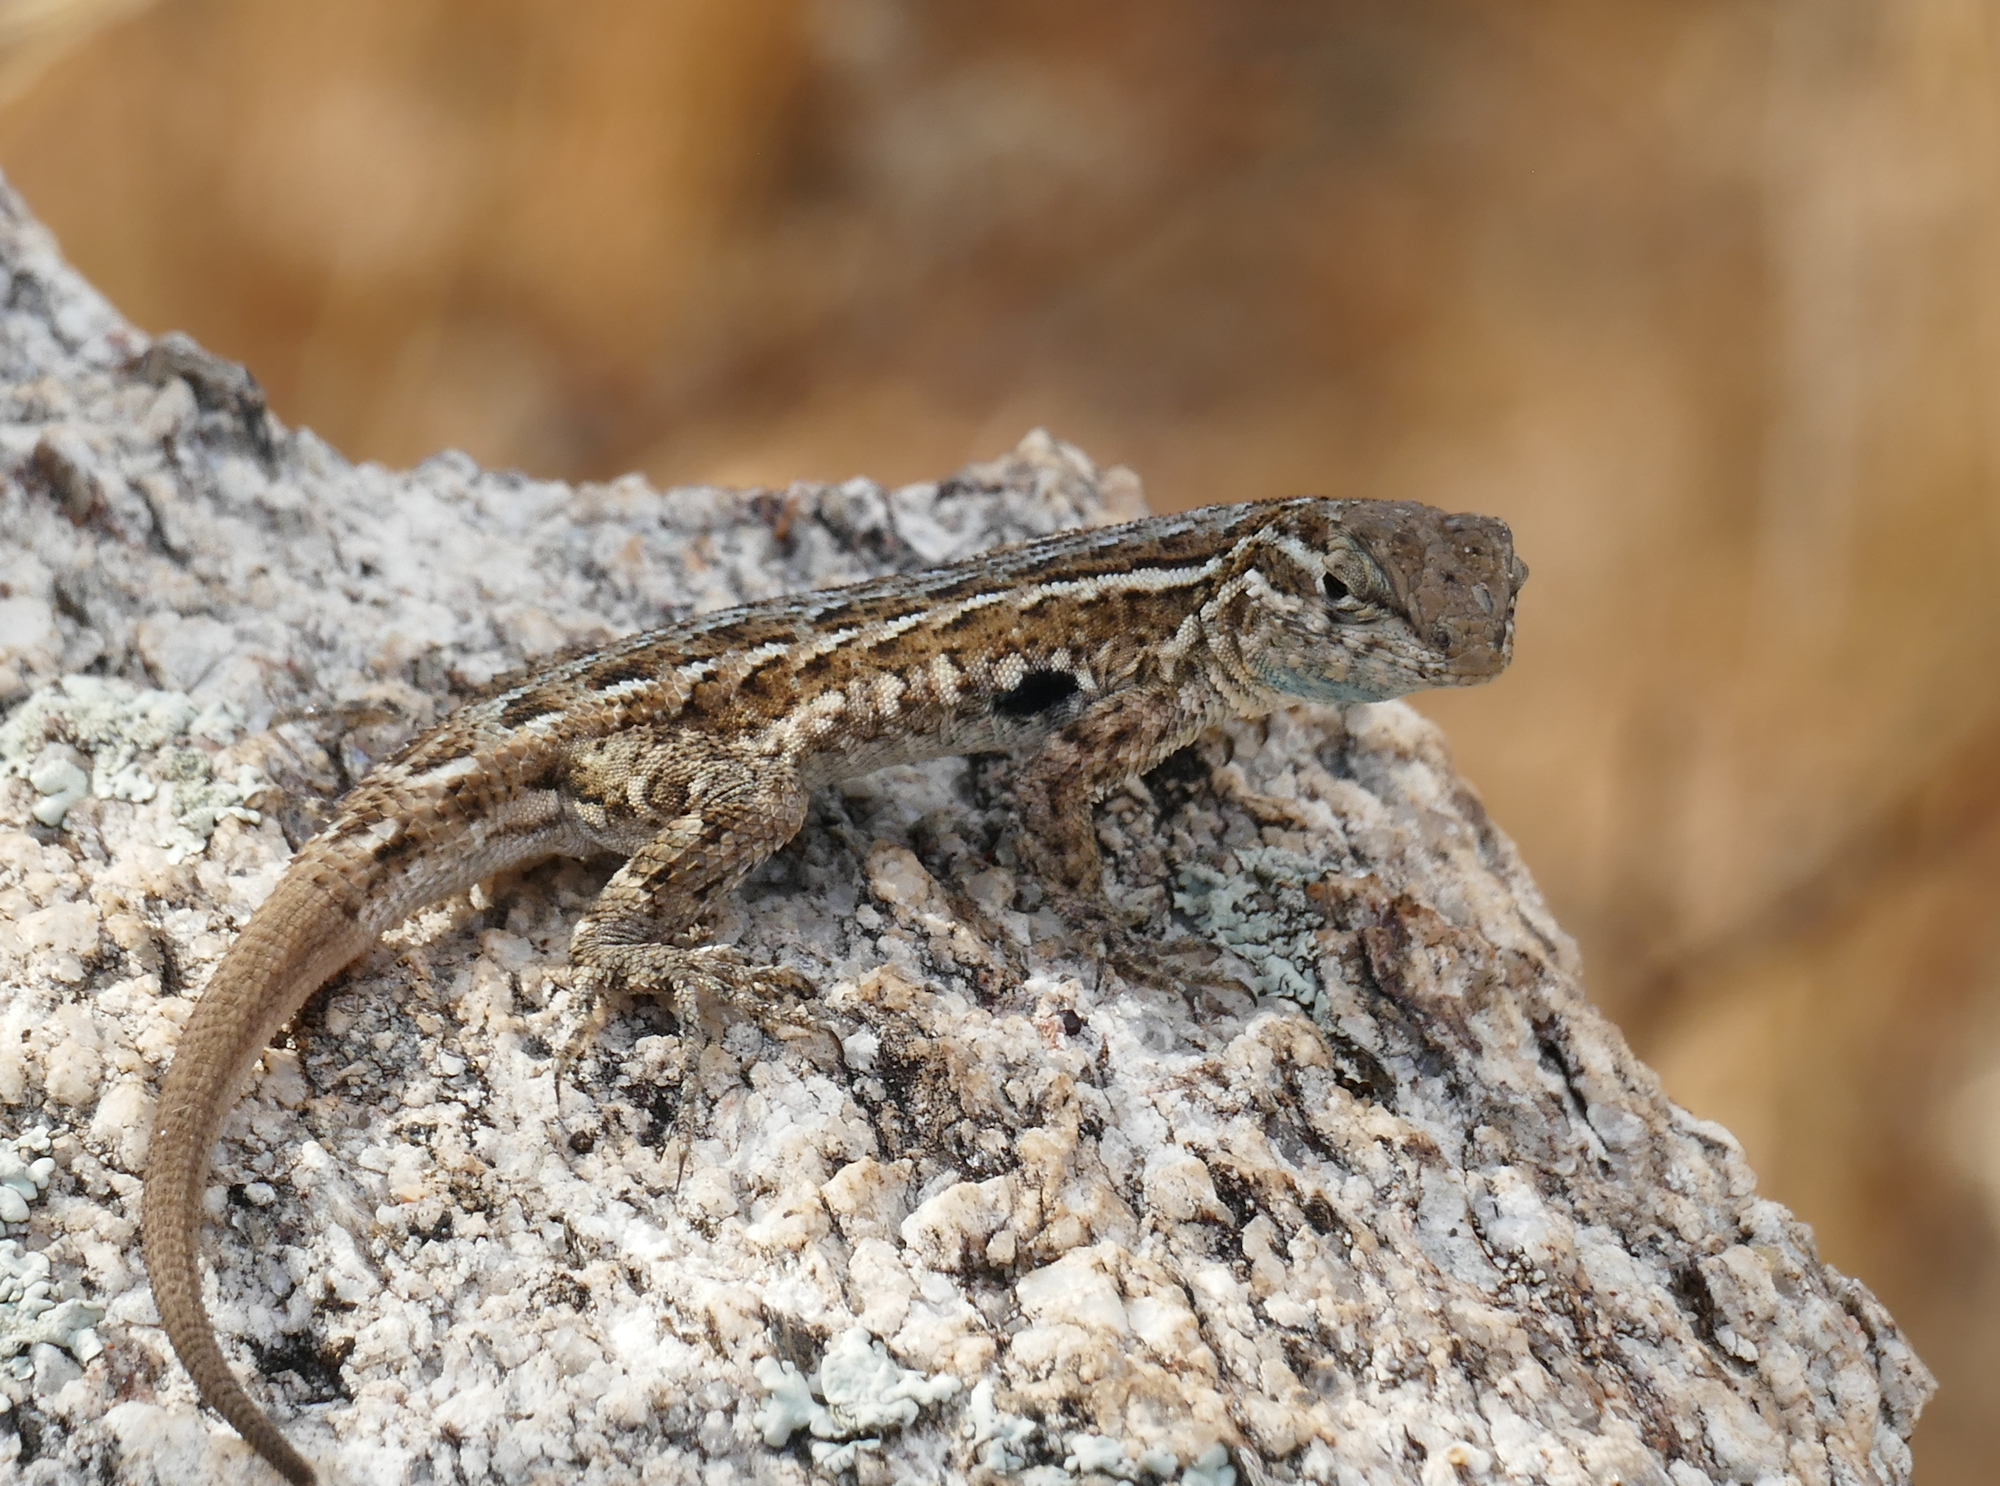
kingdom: Animalia
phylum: Chordata
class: Squamata
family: Phrynosomatidae
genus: Uta
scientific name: Uta stansburiana
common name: Side-blotched lizard
